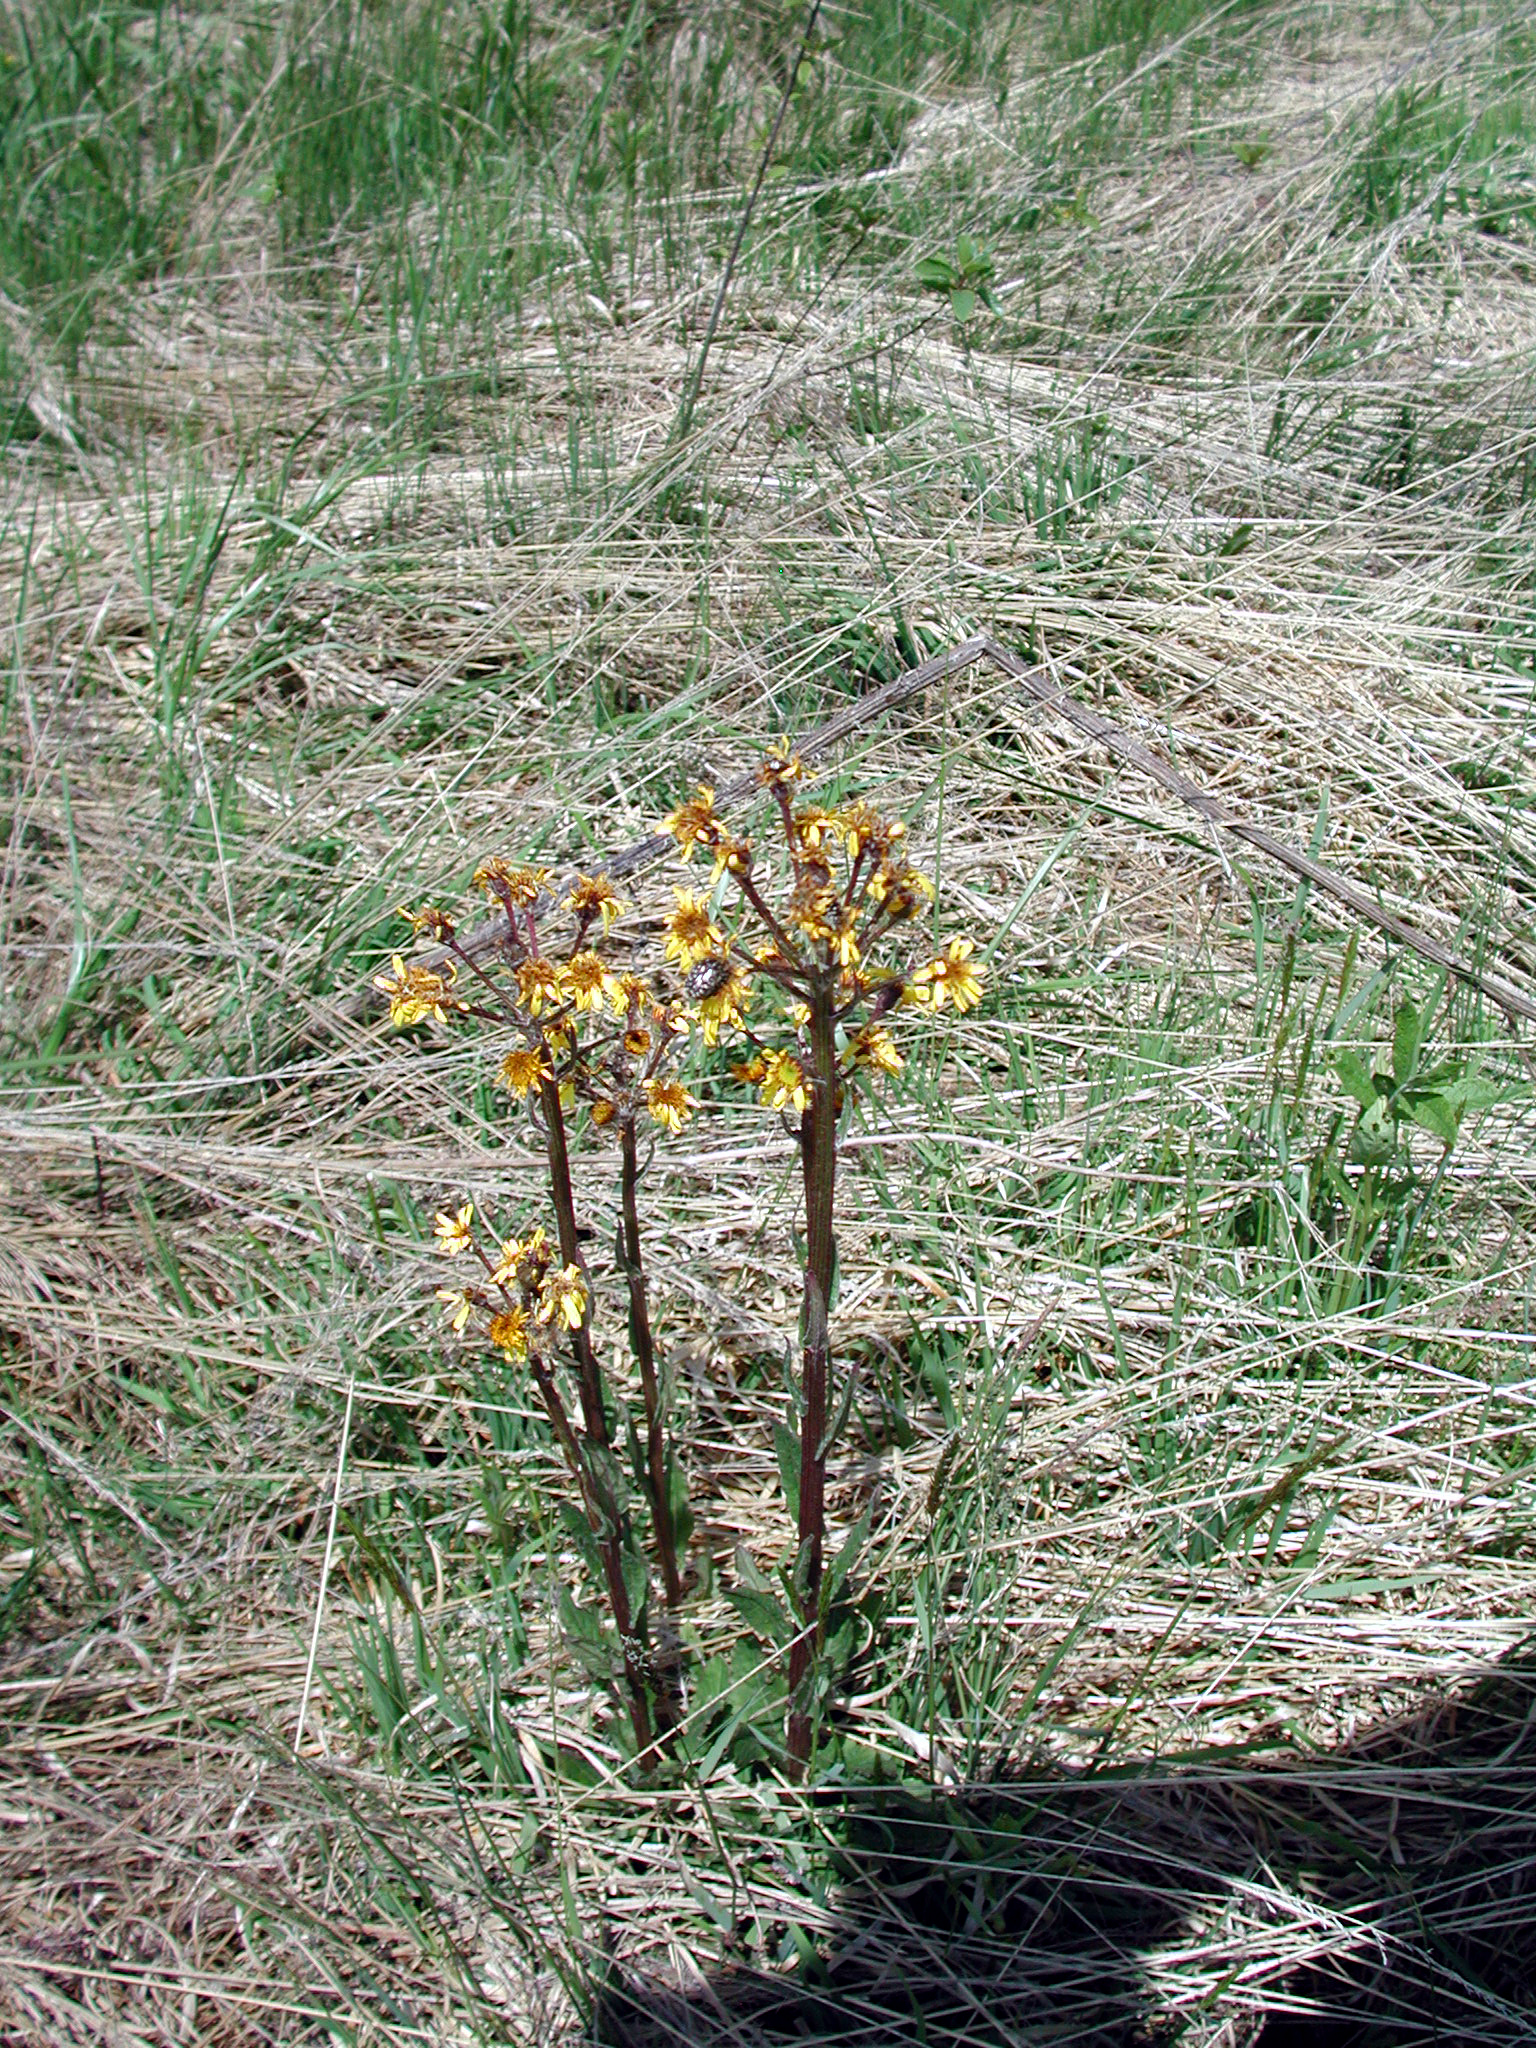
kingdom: Plantae
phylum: Tracheophyta
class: Magnoliopsida
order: Asterales
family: Asteraceae
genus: Tephroseris
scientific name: Tephroseris crispa
